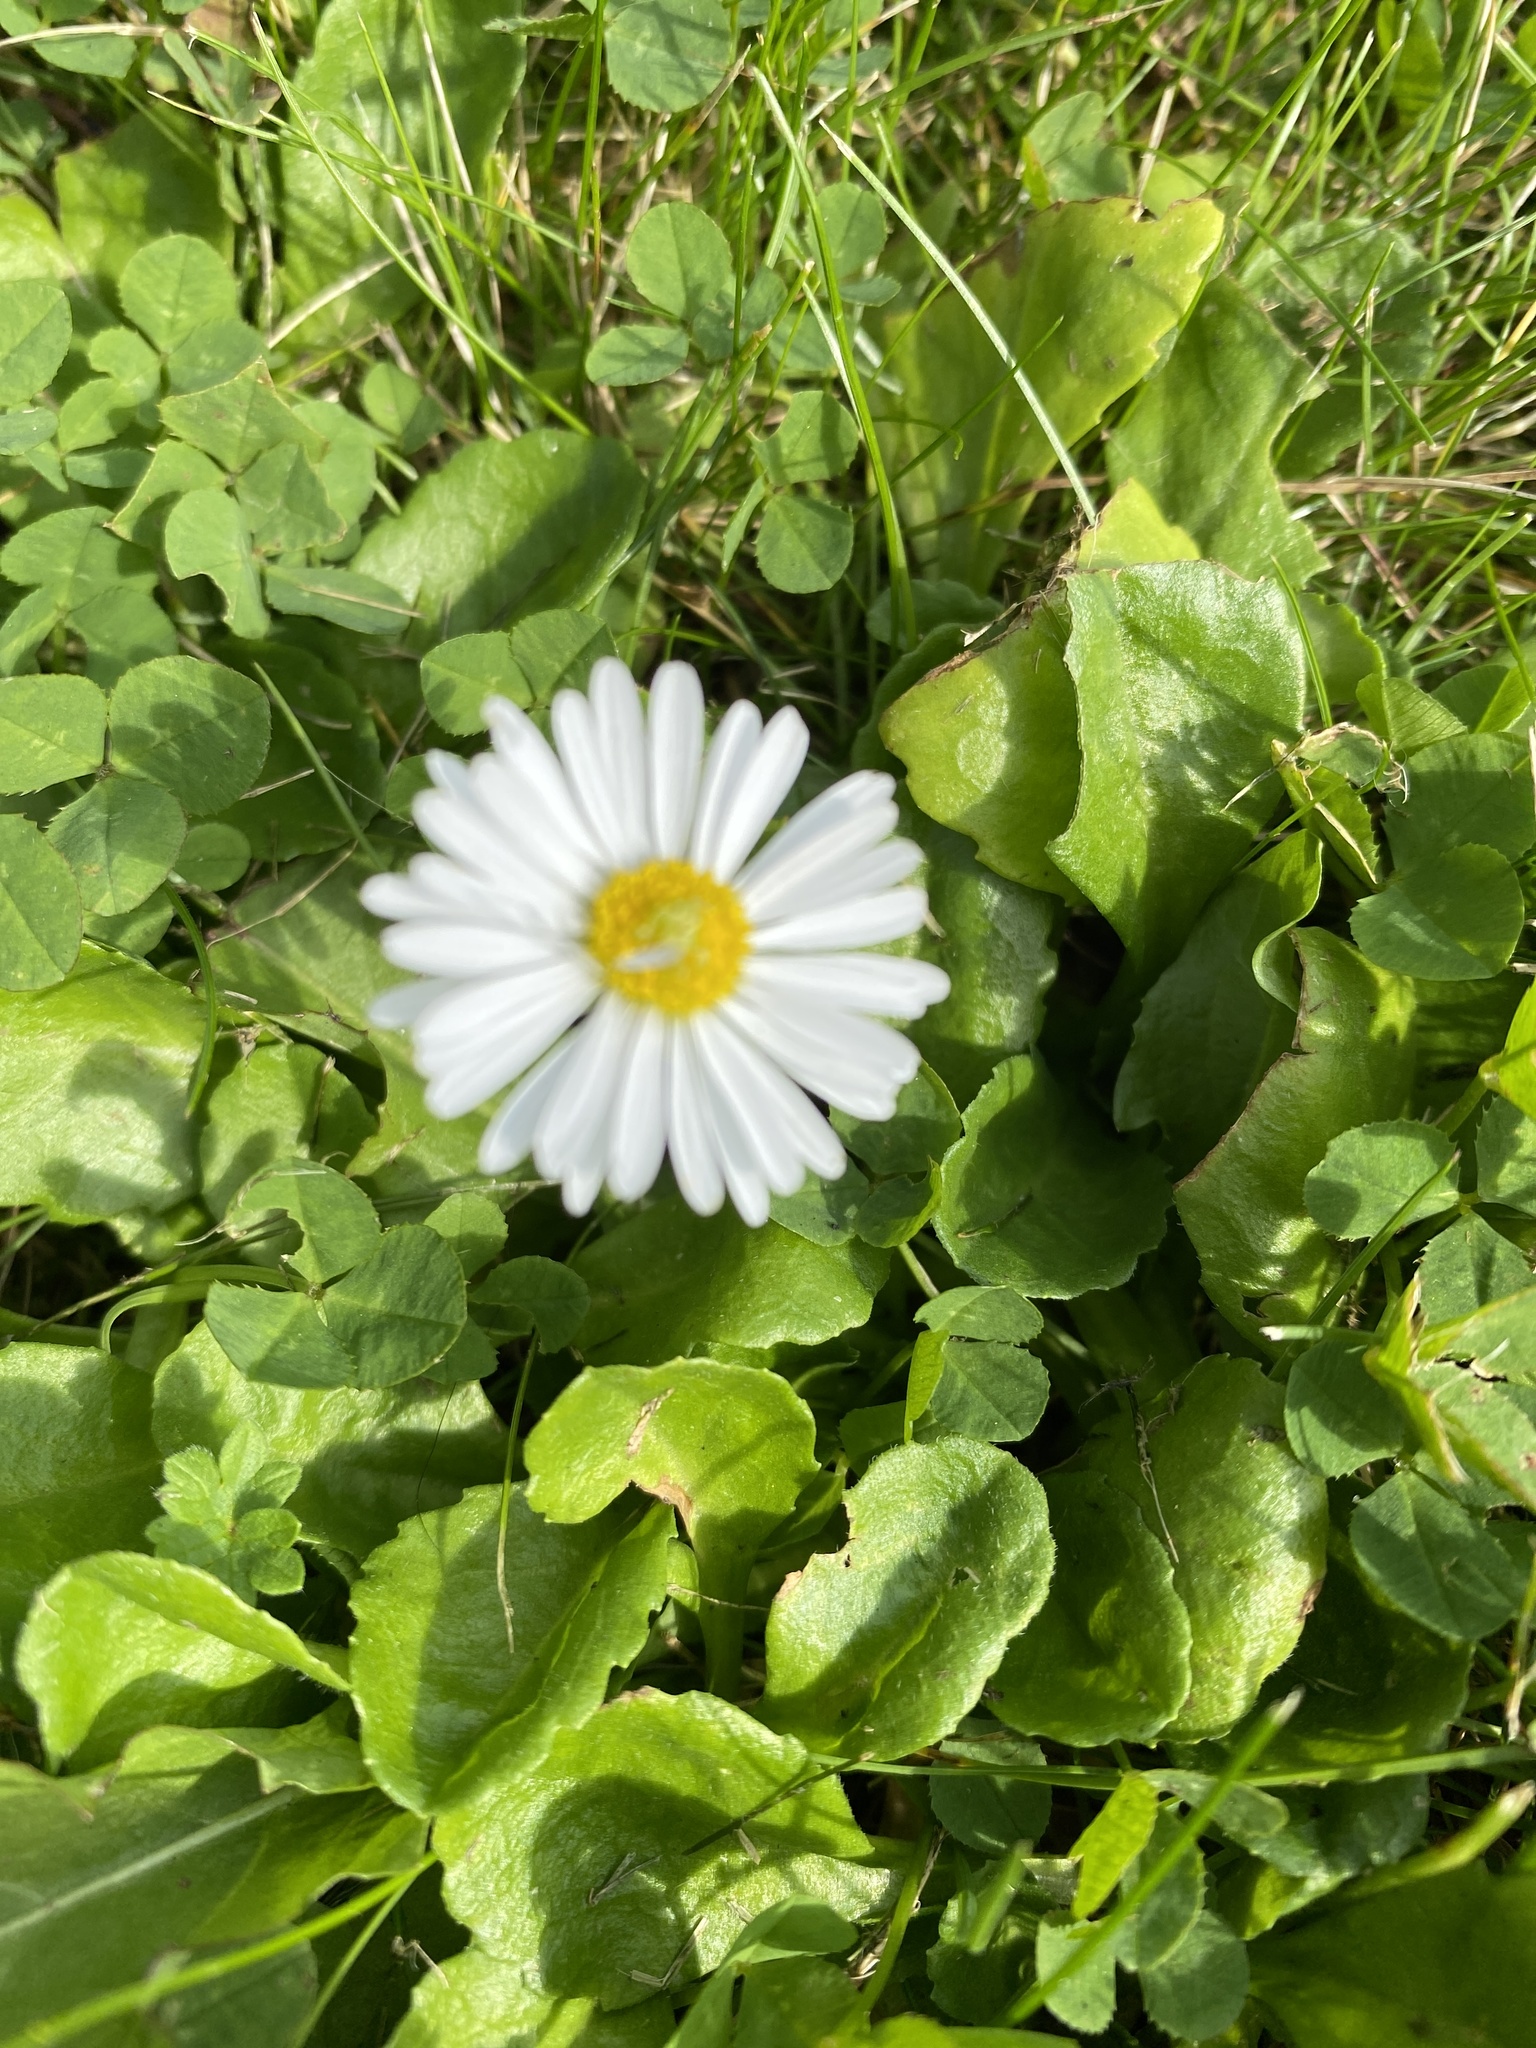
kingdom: Plantae
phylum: Tracheophyta
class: Magnoliopsida
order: Asterales
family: Asteraceae
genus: Bellis
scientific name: Bellis perennis
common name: Lawndaisy
